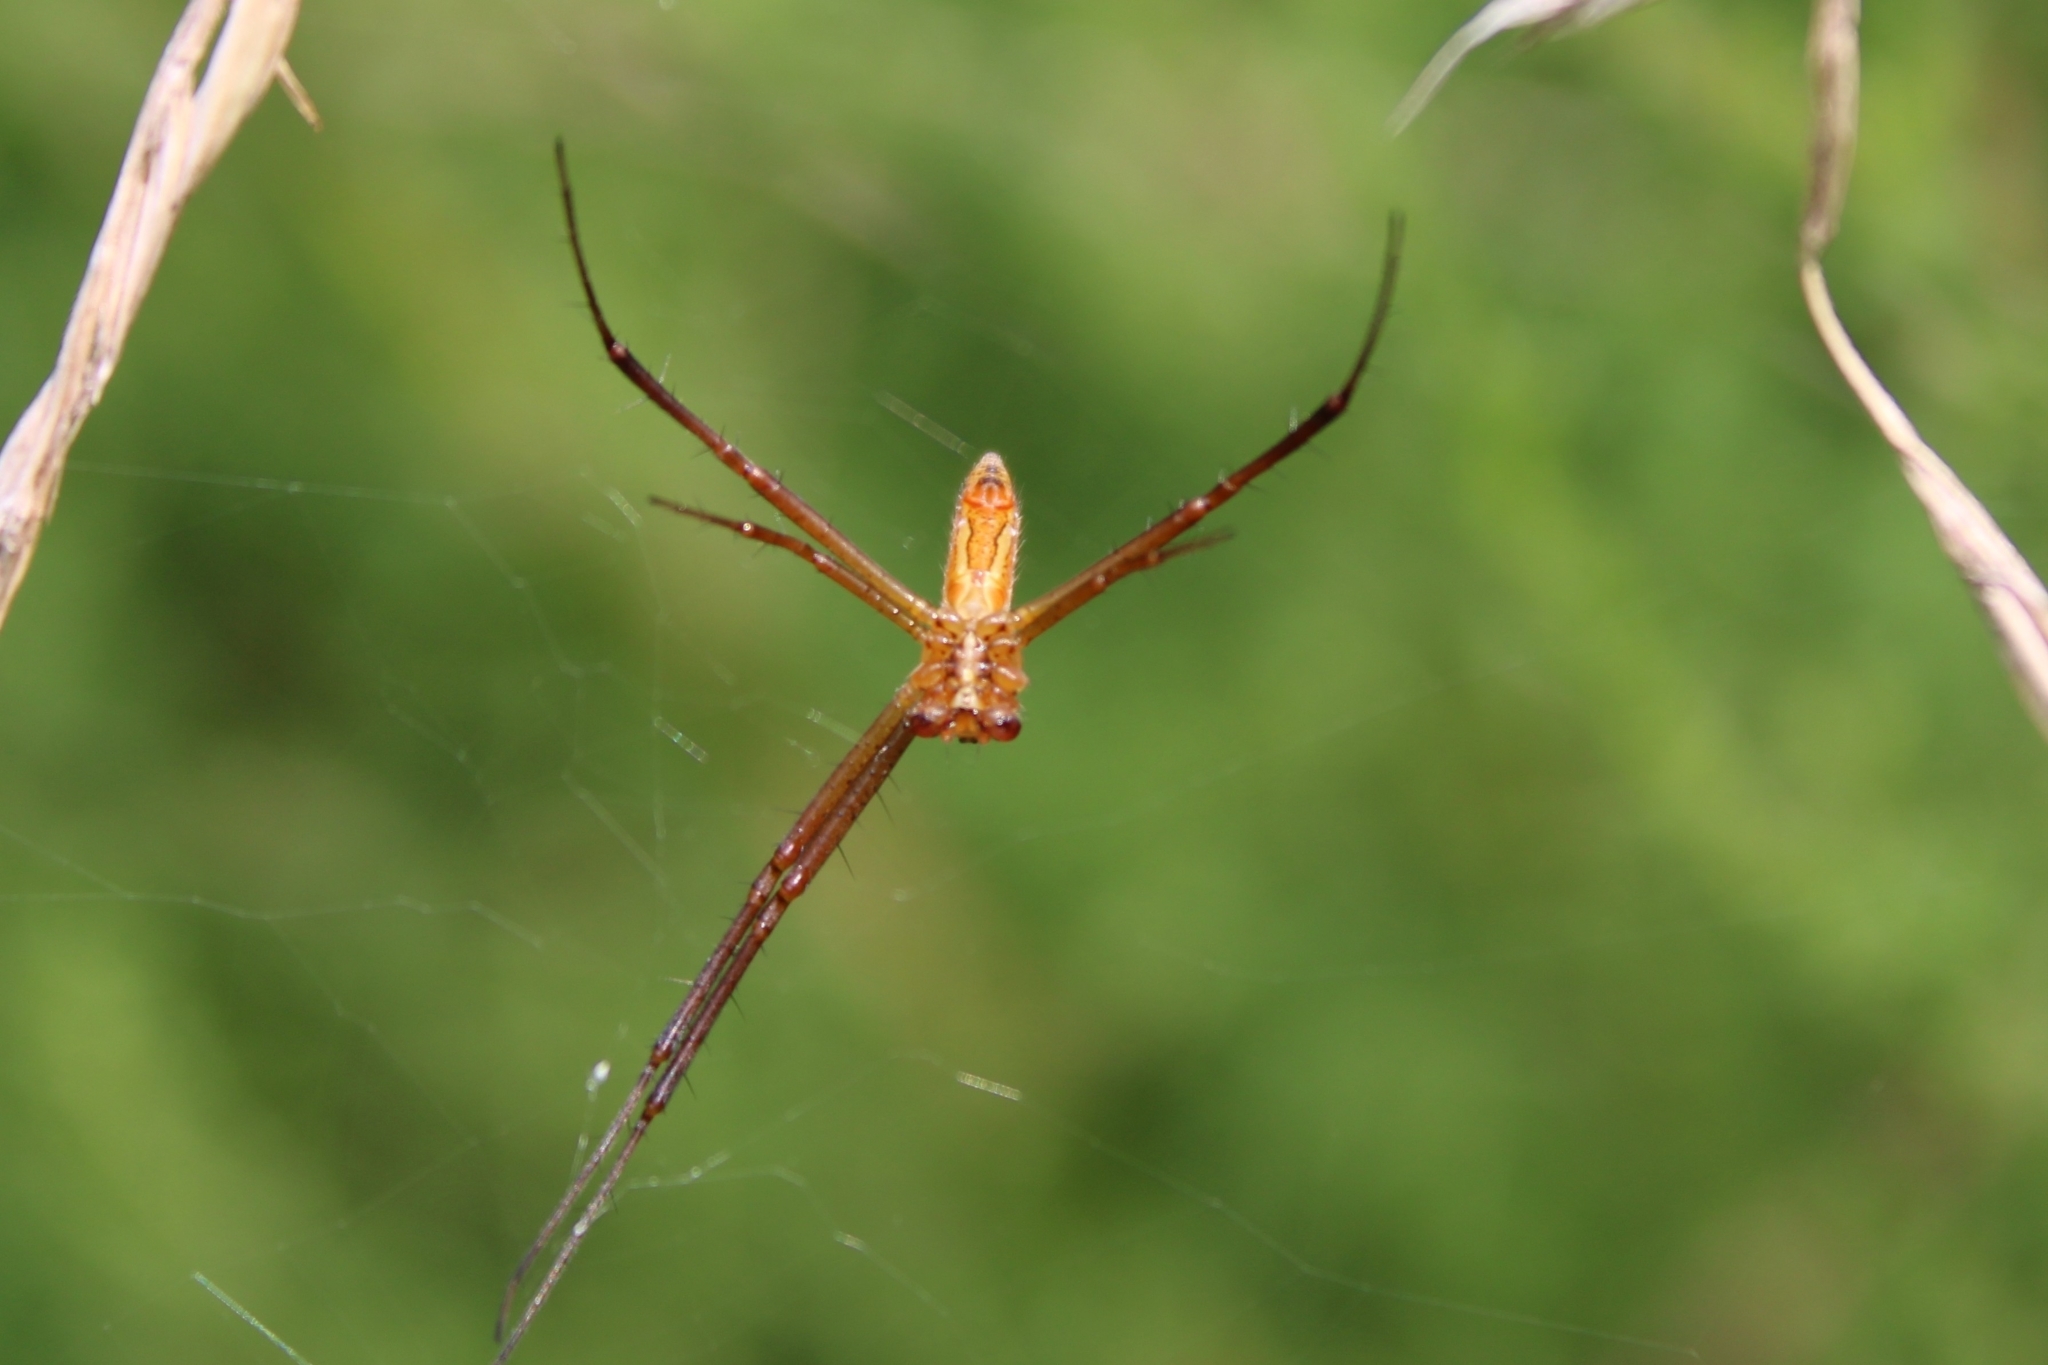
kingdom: Animalia
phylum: Arthropoda
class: Arachnida
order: Araneae
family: Araneidae
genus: Argiope
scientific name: Argiope trifasciata
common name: Banded garden spider
